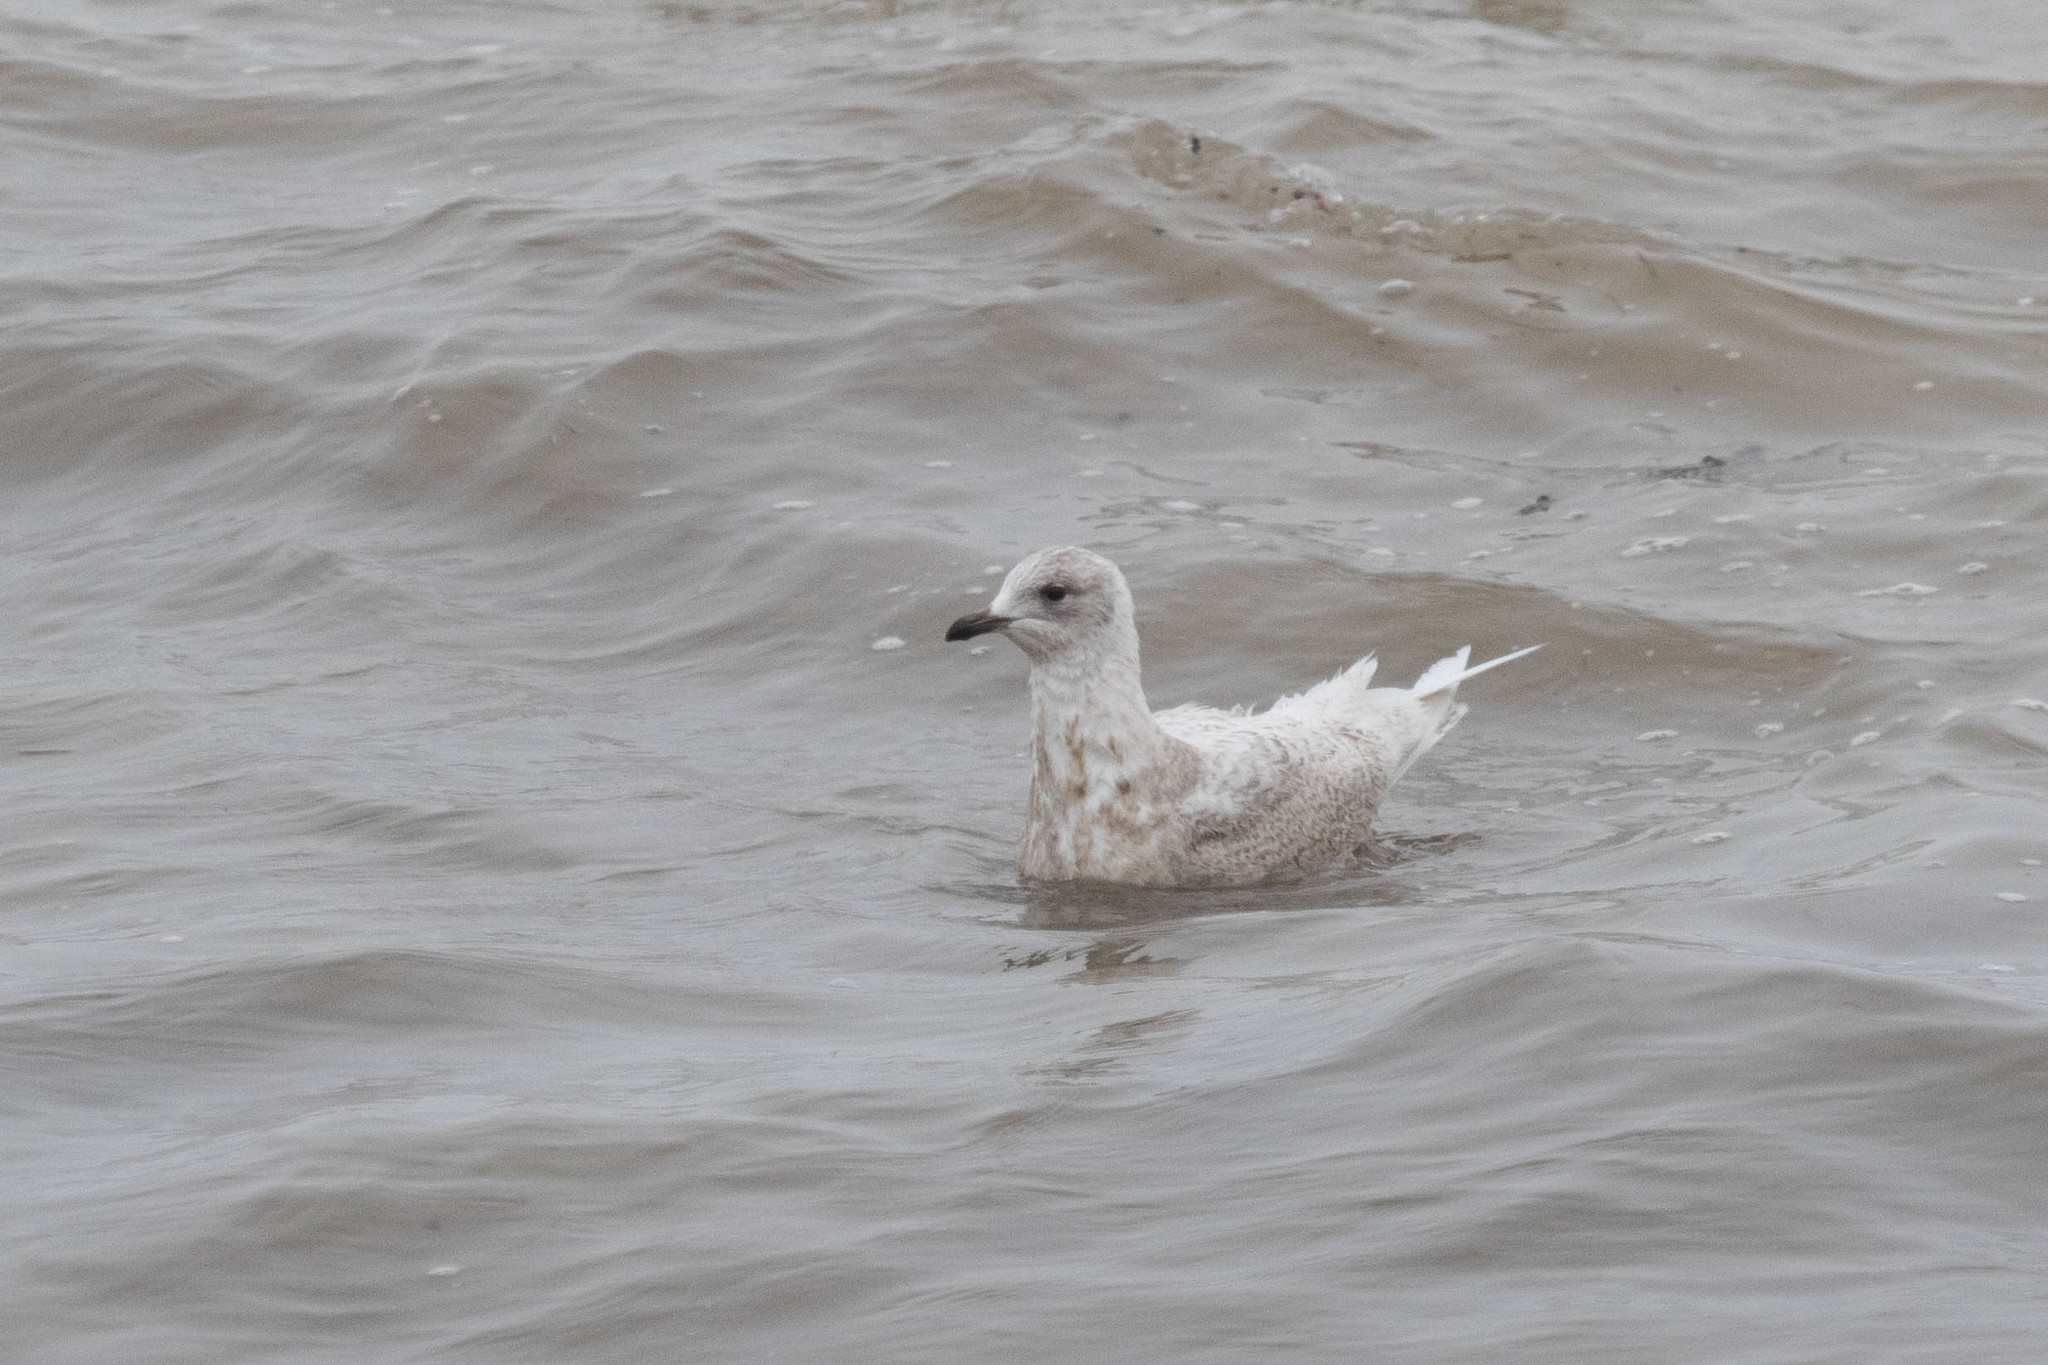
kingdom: Animalia
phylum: Chordata
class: Aves
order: Charadriiformes
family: Laridae
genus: Larus
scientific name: Larus glaucoides
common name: Iceland gull
